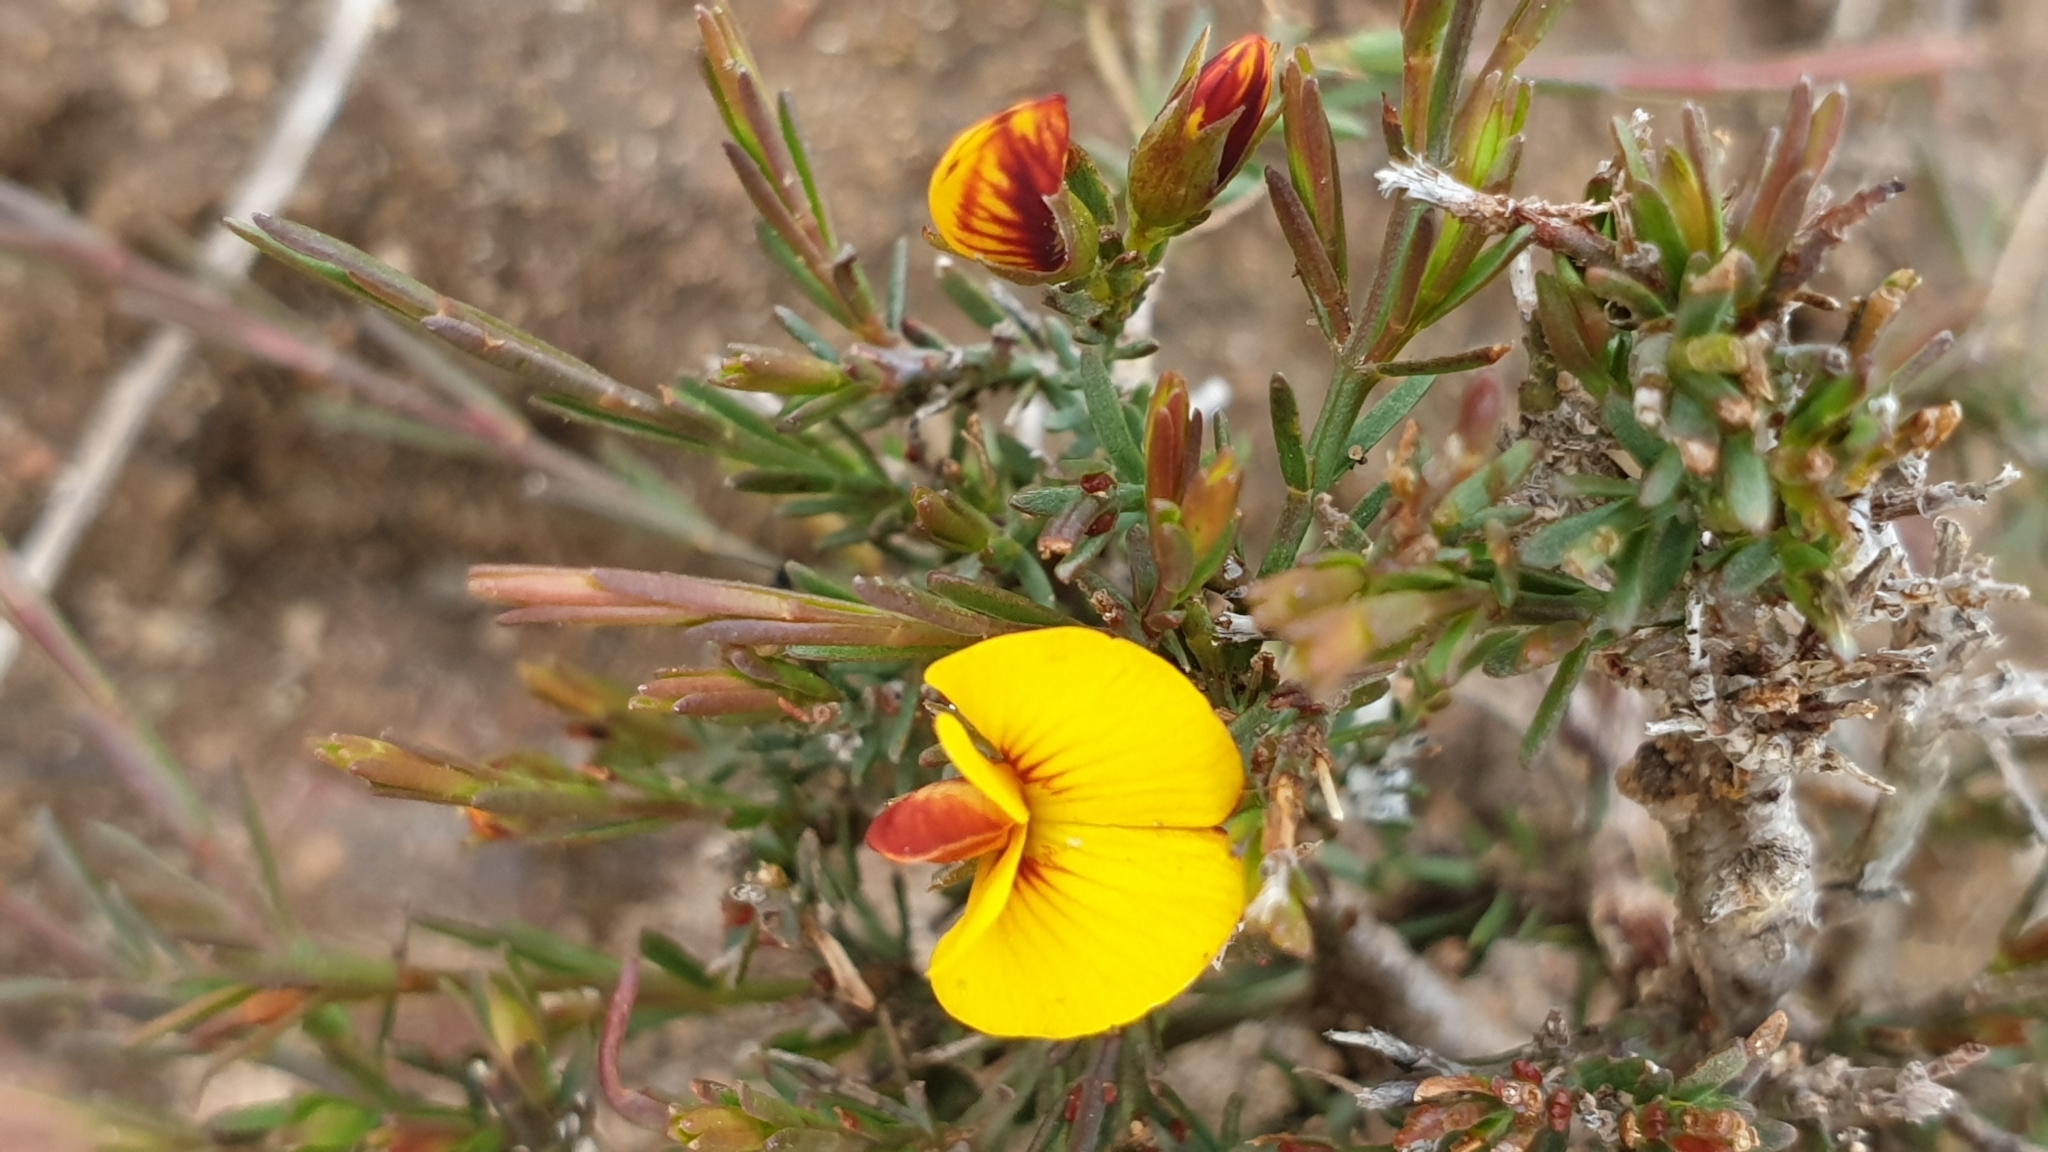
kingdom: Plantae
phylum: Tracheophyta
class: Magnoliopsida
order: Fabales
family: Fabaceae
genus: Eutaxia
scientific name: Eutaxia microphylla
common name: Mallee bush-pea
